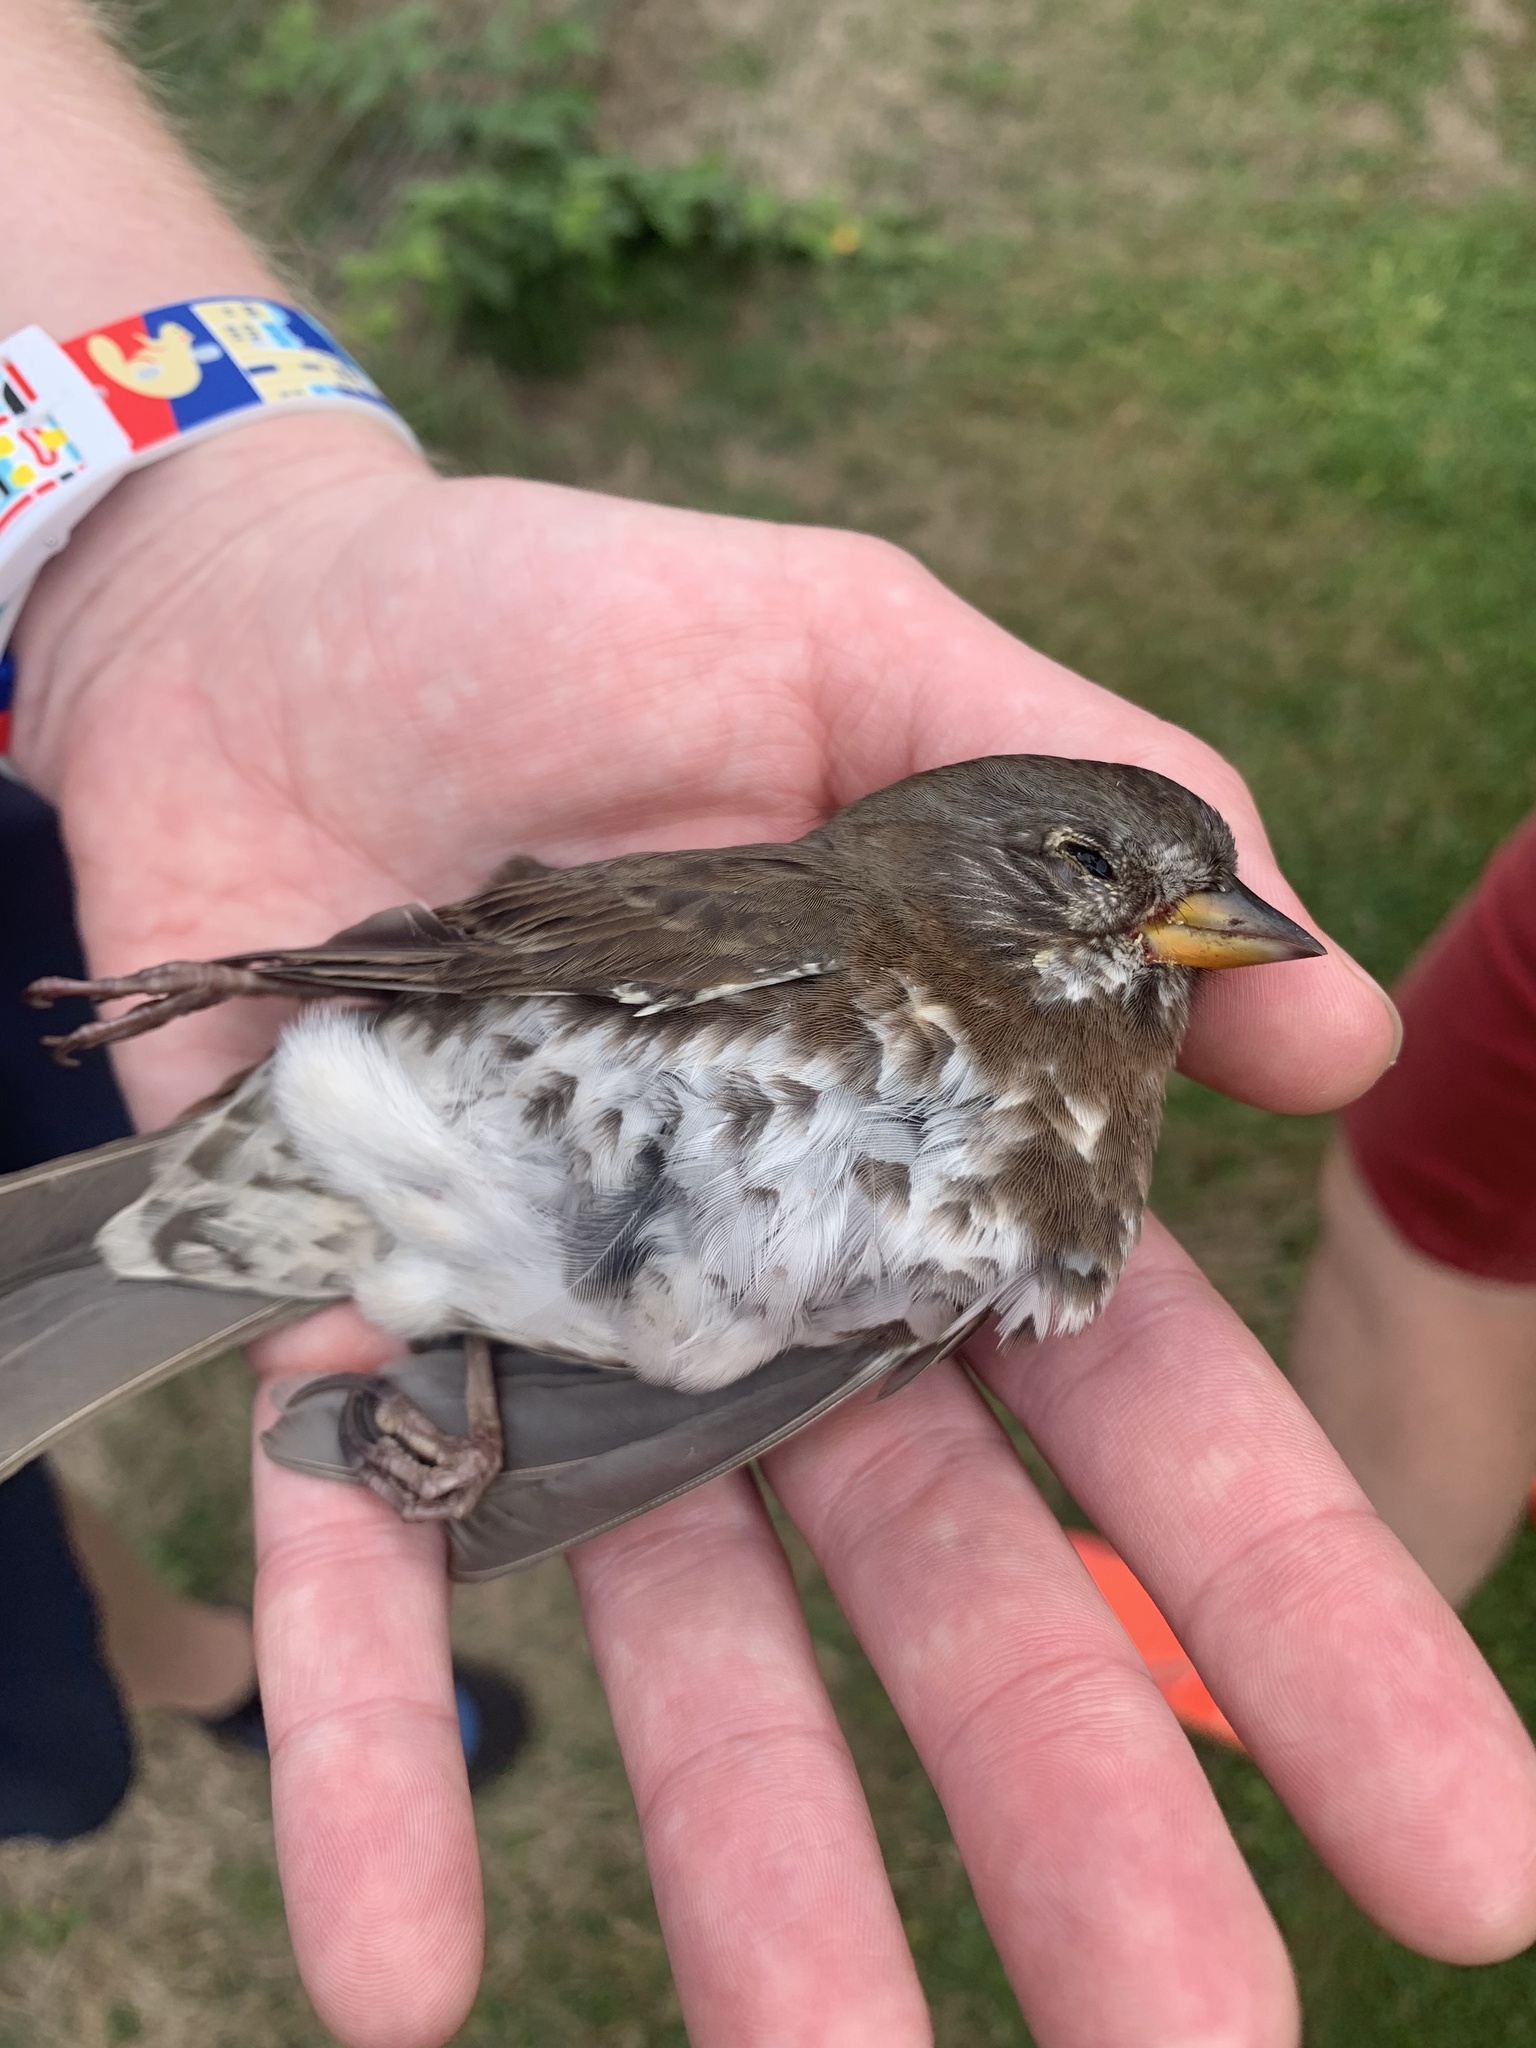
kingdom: Animalia
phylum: Chordata
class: Aves
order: Passeriformes
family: Passerellidae
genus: Passerella
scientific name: Passerella iliaca
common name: Fox sparrow
